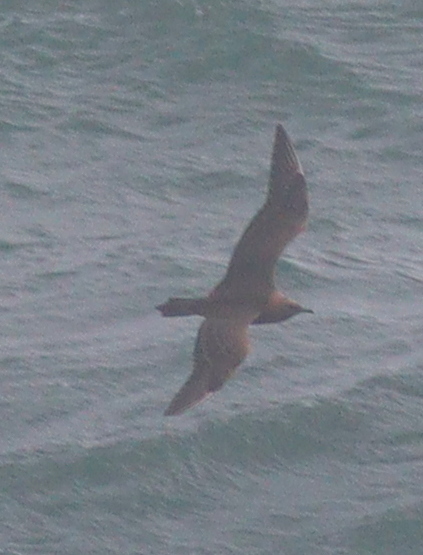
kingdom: Animalia
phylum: Chordata
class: Aves
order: Charadriiformes
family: Stercorariidae
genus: Stercorarius
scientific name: Stercorarius parasiticus
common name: Parasitic jaeger
